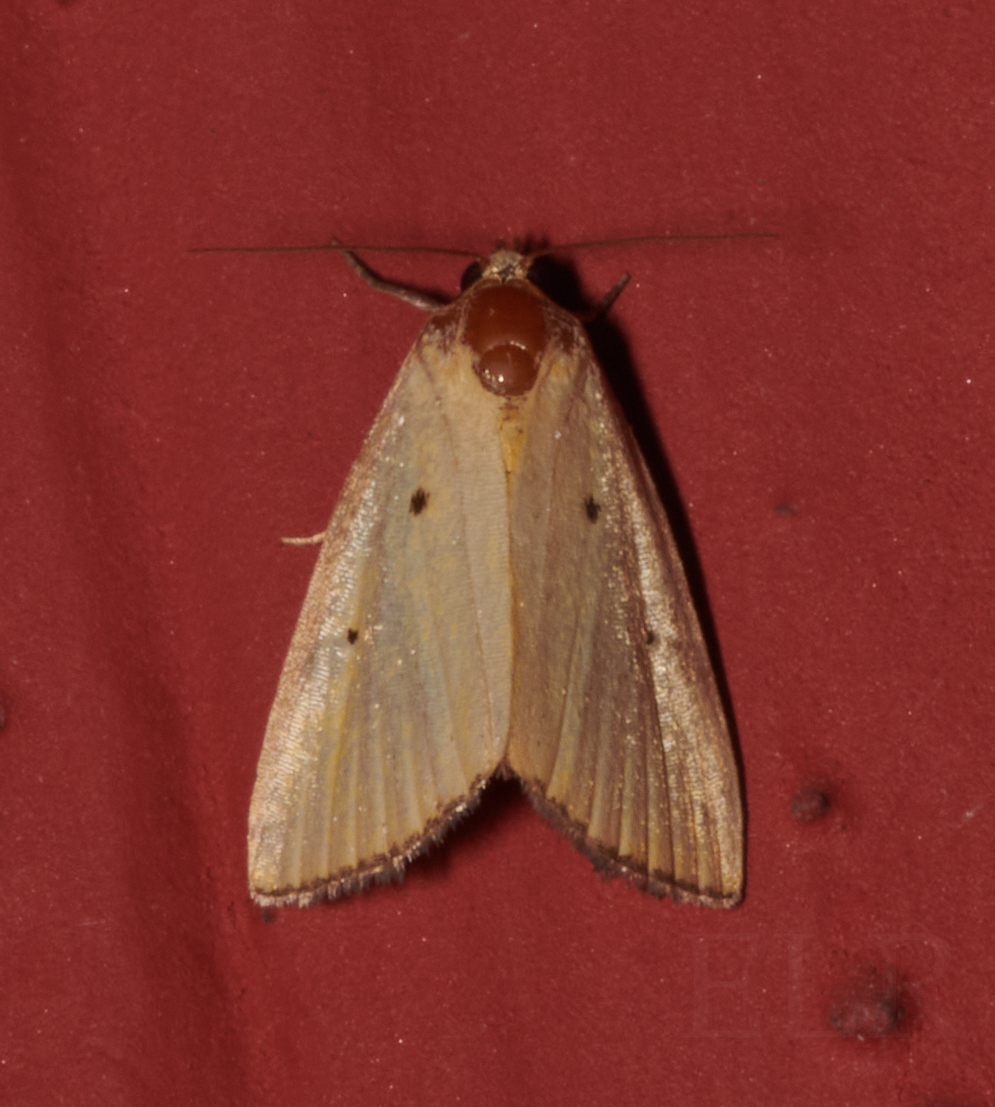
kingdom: Animalia
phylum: Arthropoda
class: Insecta
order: Lepidoptera
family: Noctuidae
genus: Marimatha
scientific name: Marimatha nigrofimbria
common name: Black-bordered lemon moth
